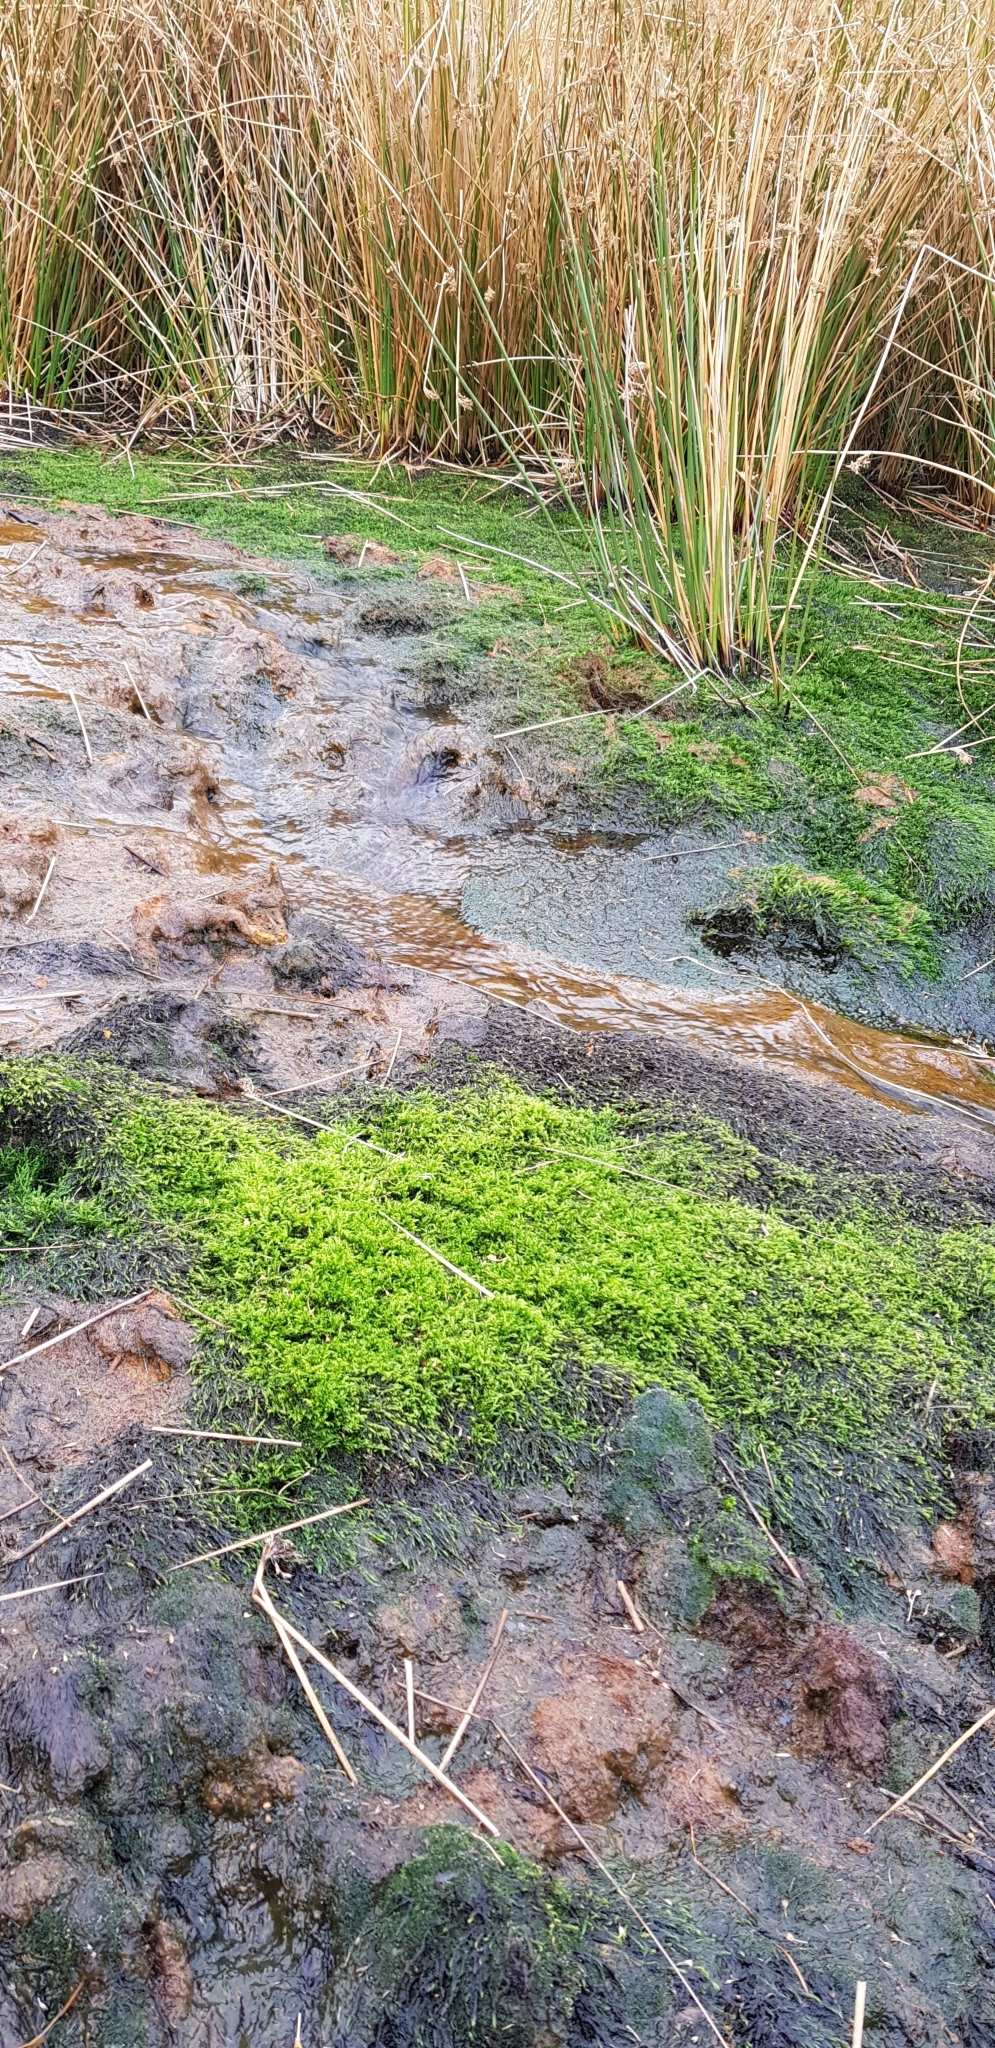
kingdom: Plantae
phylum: Bryophyta
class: Bryopsida
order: Hypnales
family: Calliergonaceae
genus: Warnstorfia
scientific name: Warnstorfia fluitans
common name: Floating hook moss
